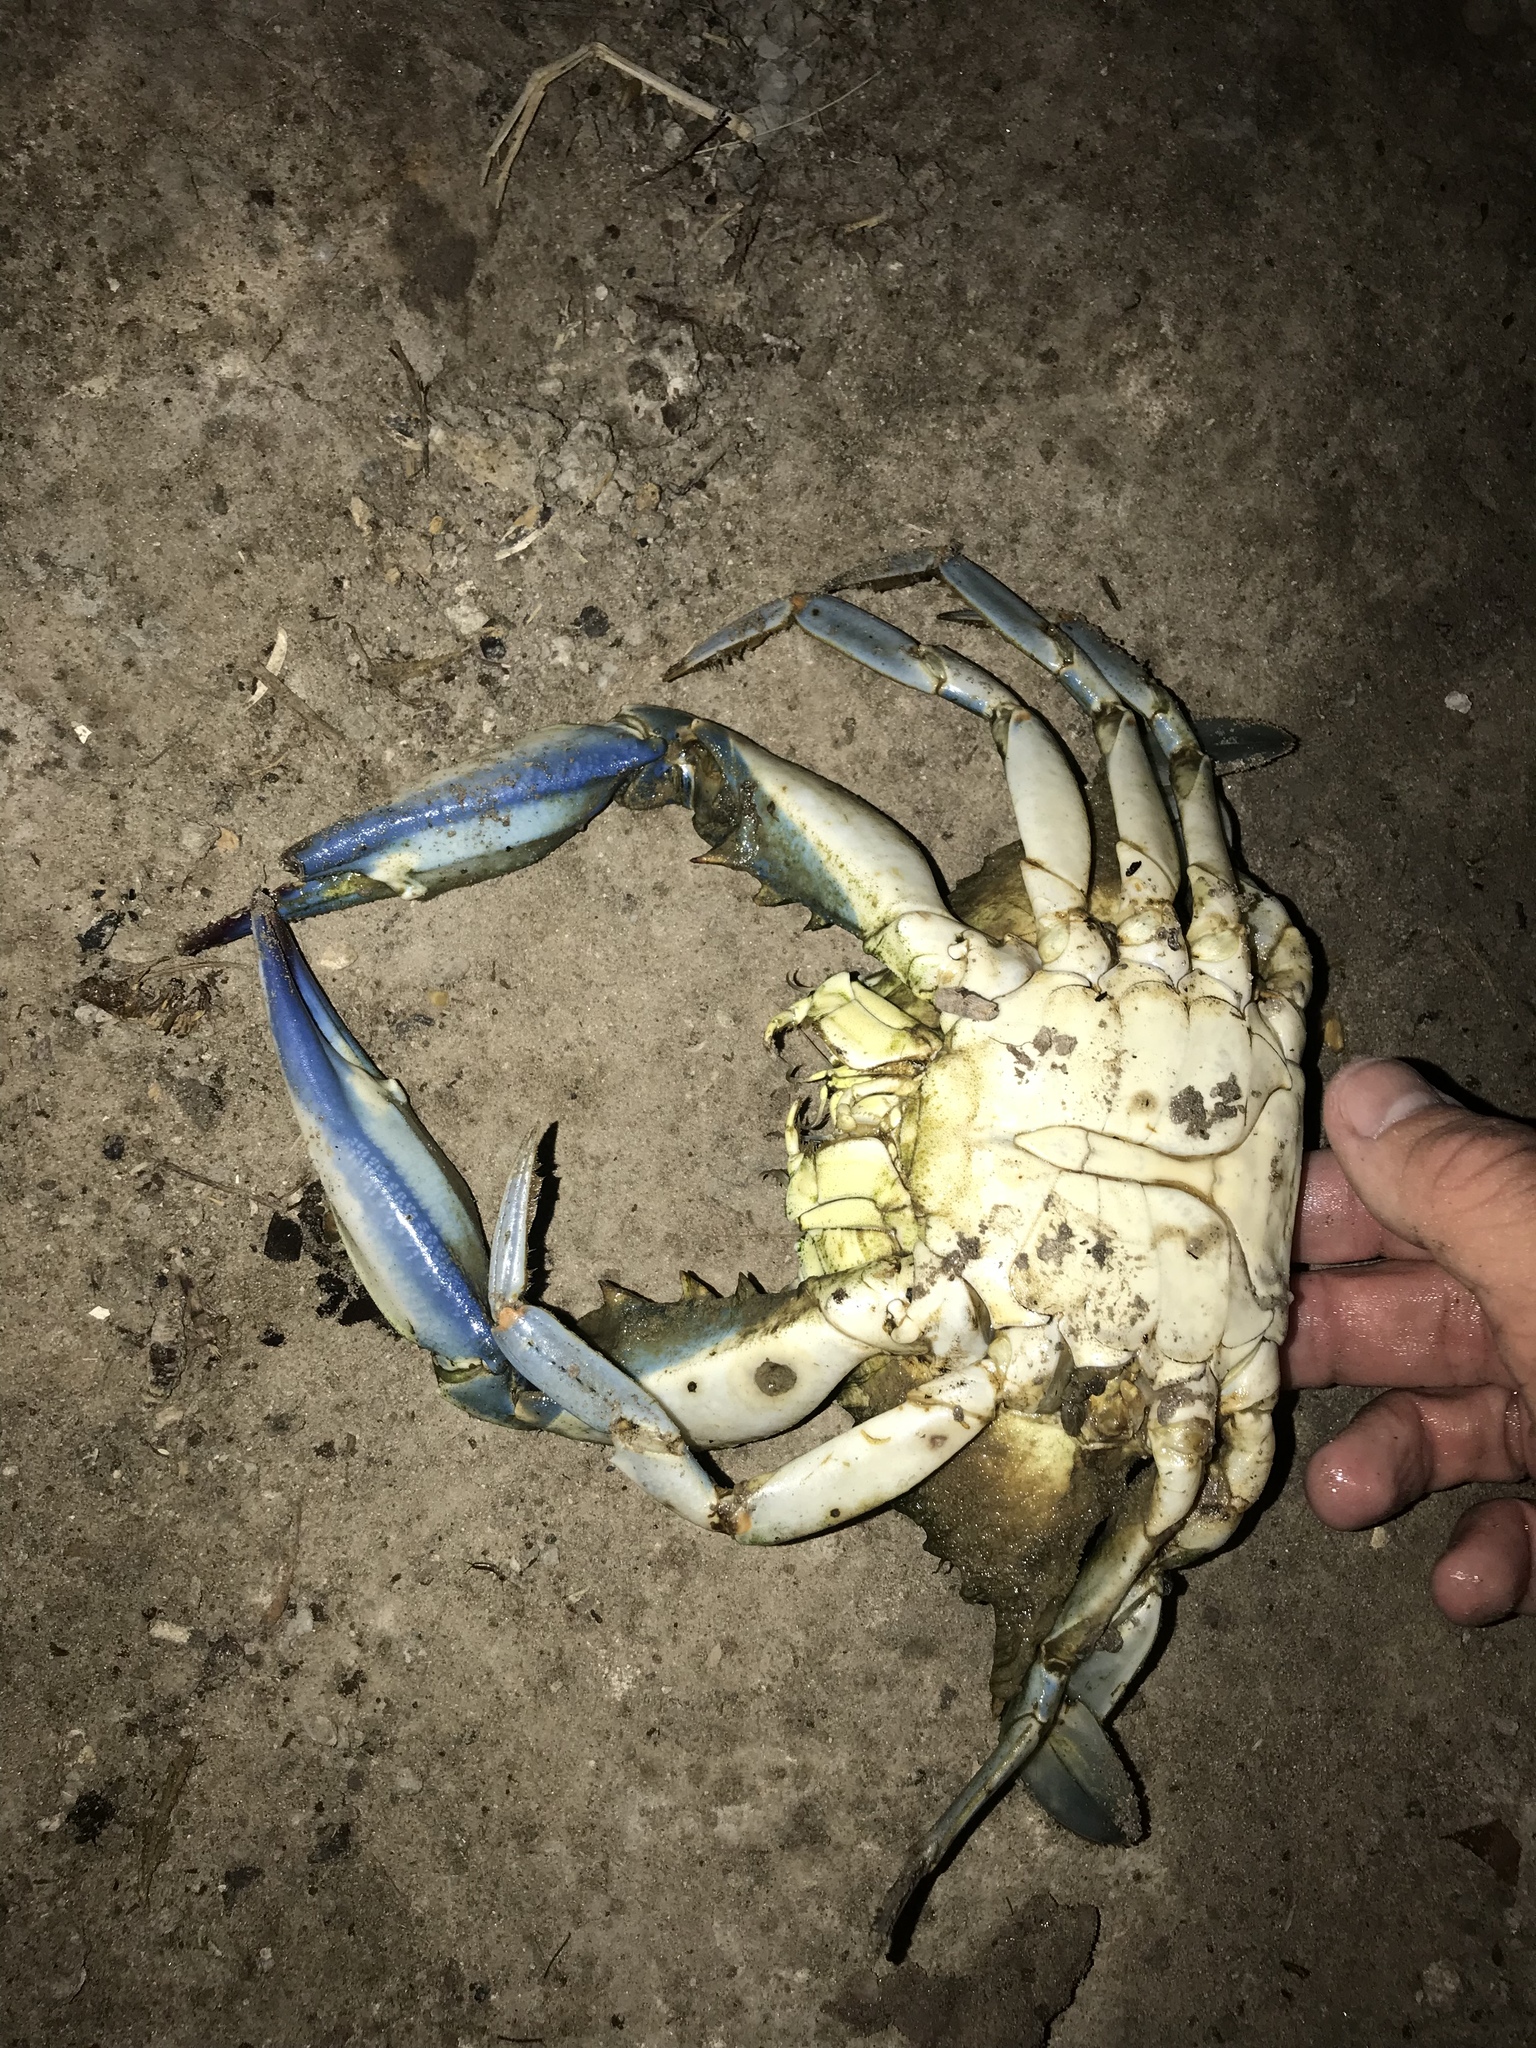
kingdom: Animalia
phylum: Arthropoda
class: Malacostraca
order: Decapoda
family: Portunidae
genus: Callinectes
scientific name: Callinectes sapidus
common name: Blue crab
